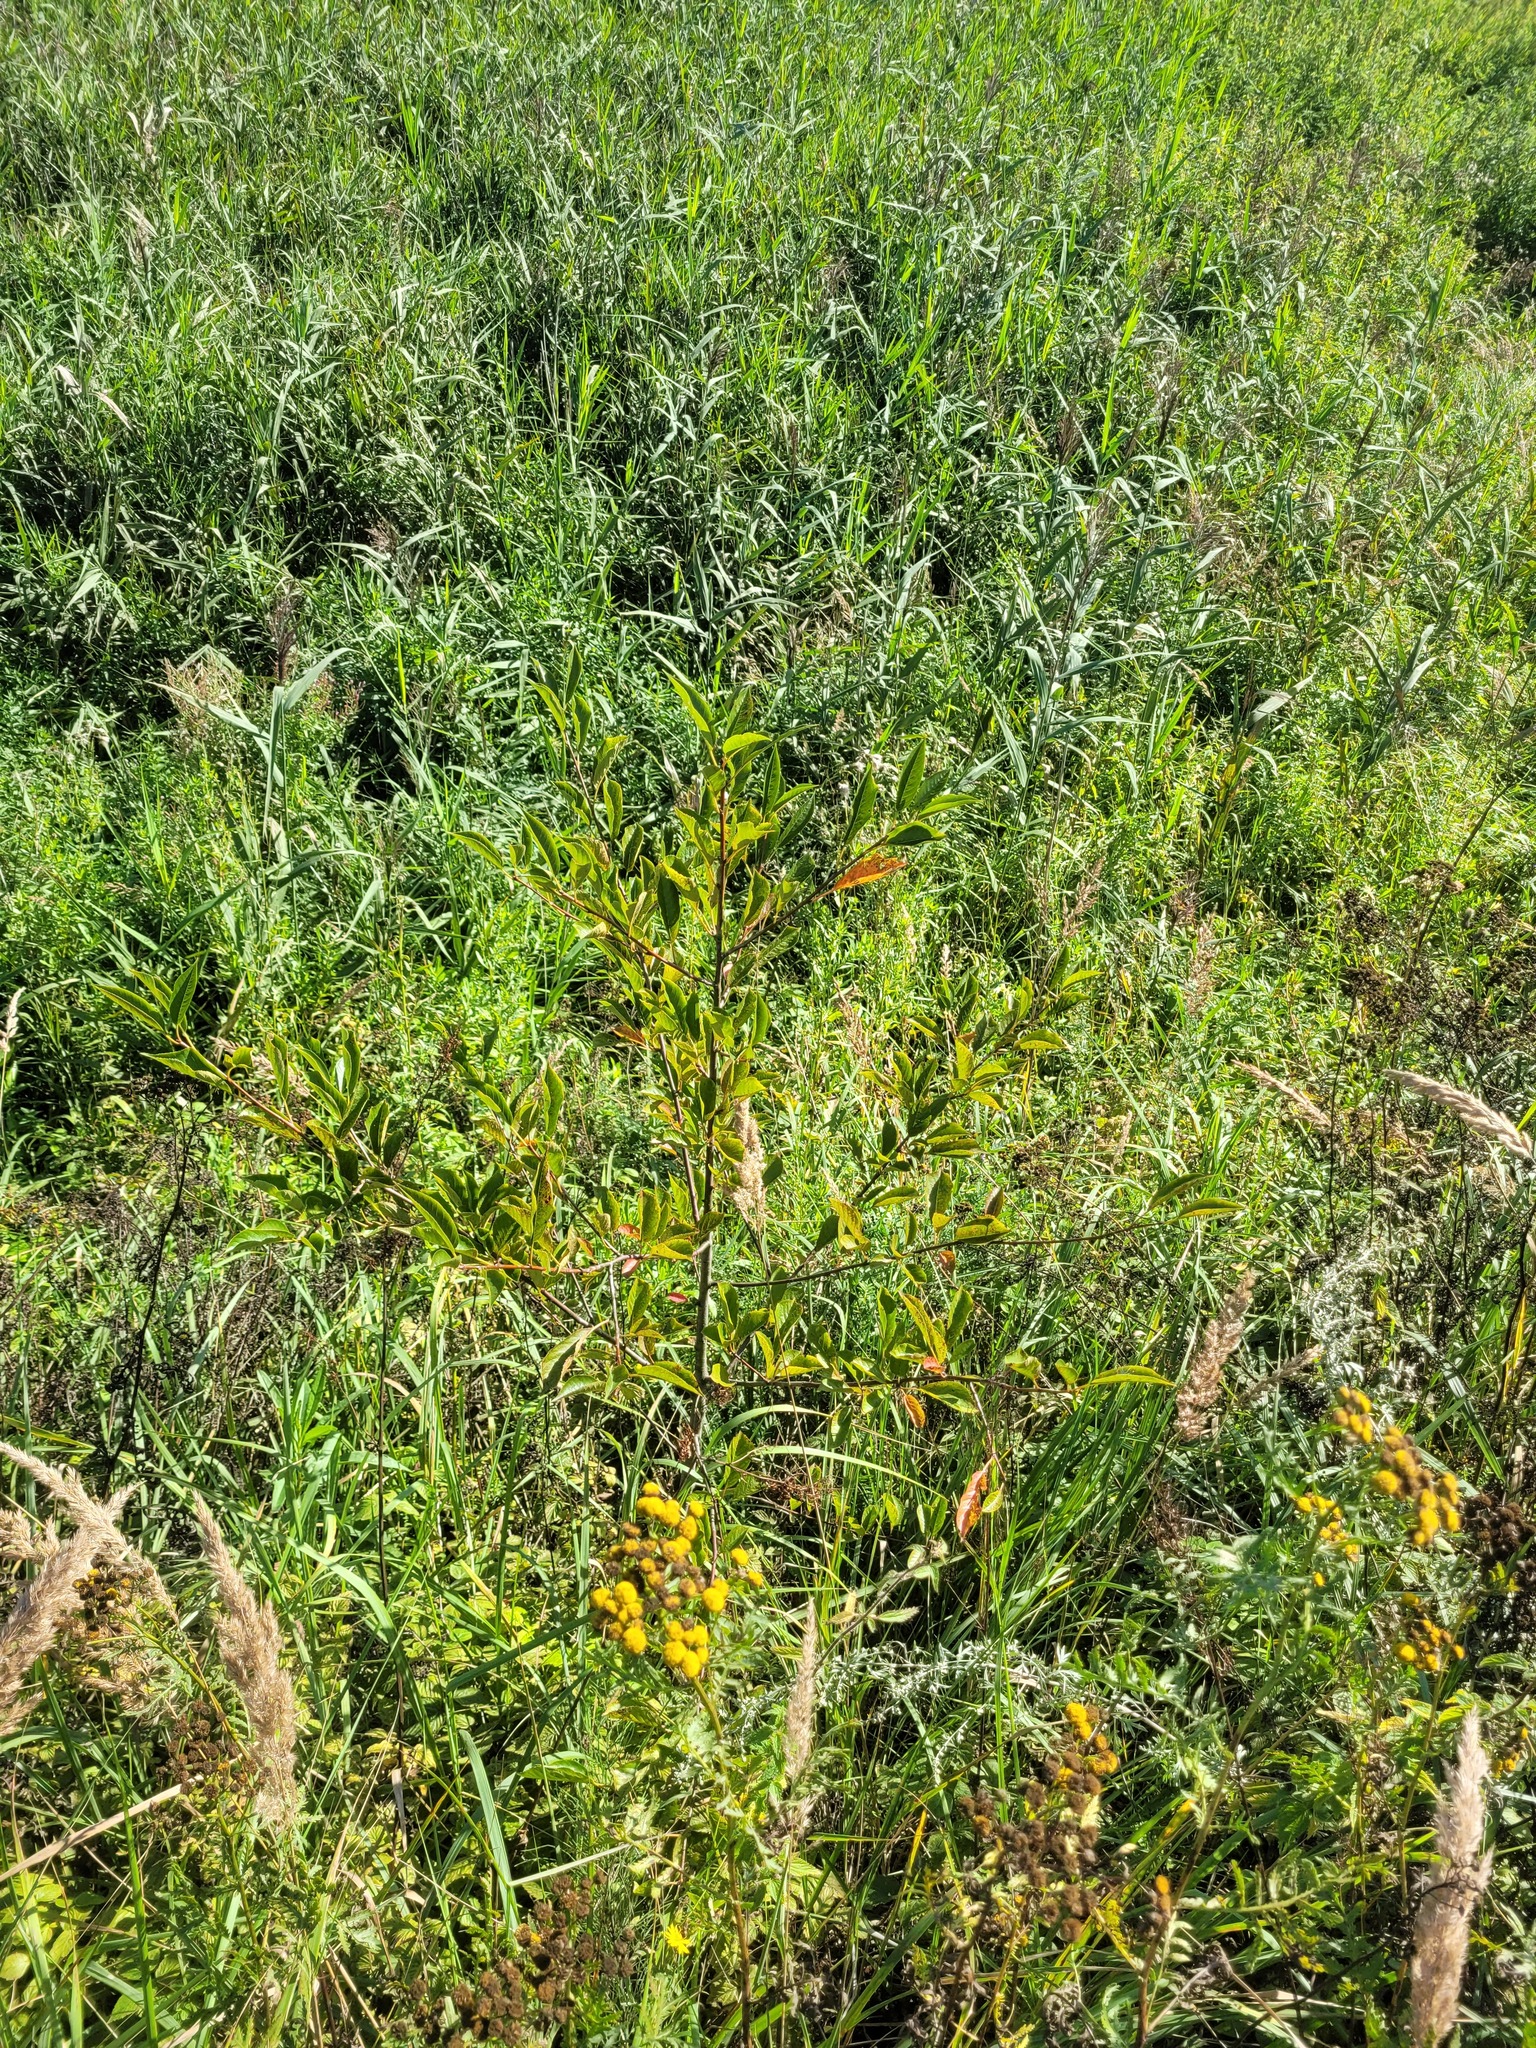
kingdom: Plantae
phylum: Tracheophyta
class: Magnoliopsida
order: Rosales
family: Rosaceae
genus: Prunus
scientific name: Prunus cerasus
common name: Morello cherry
